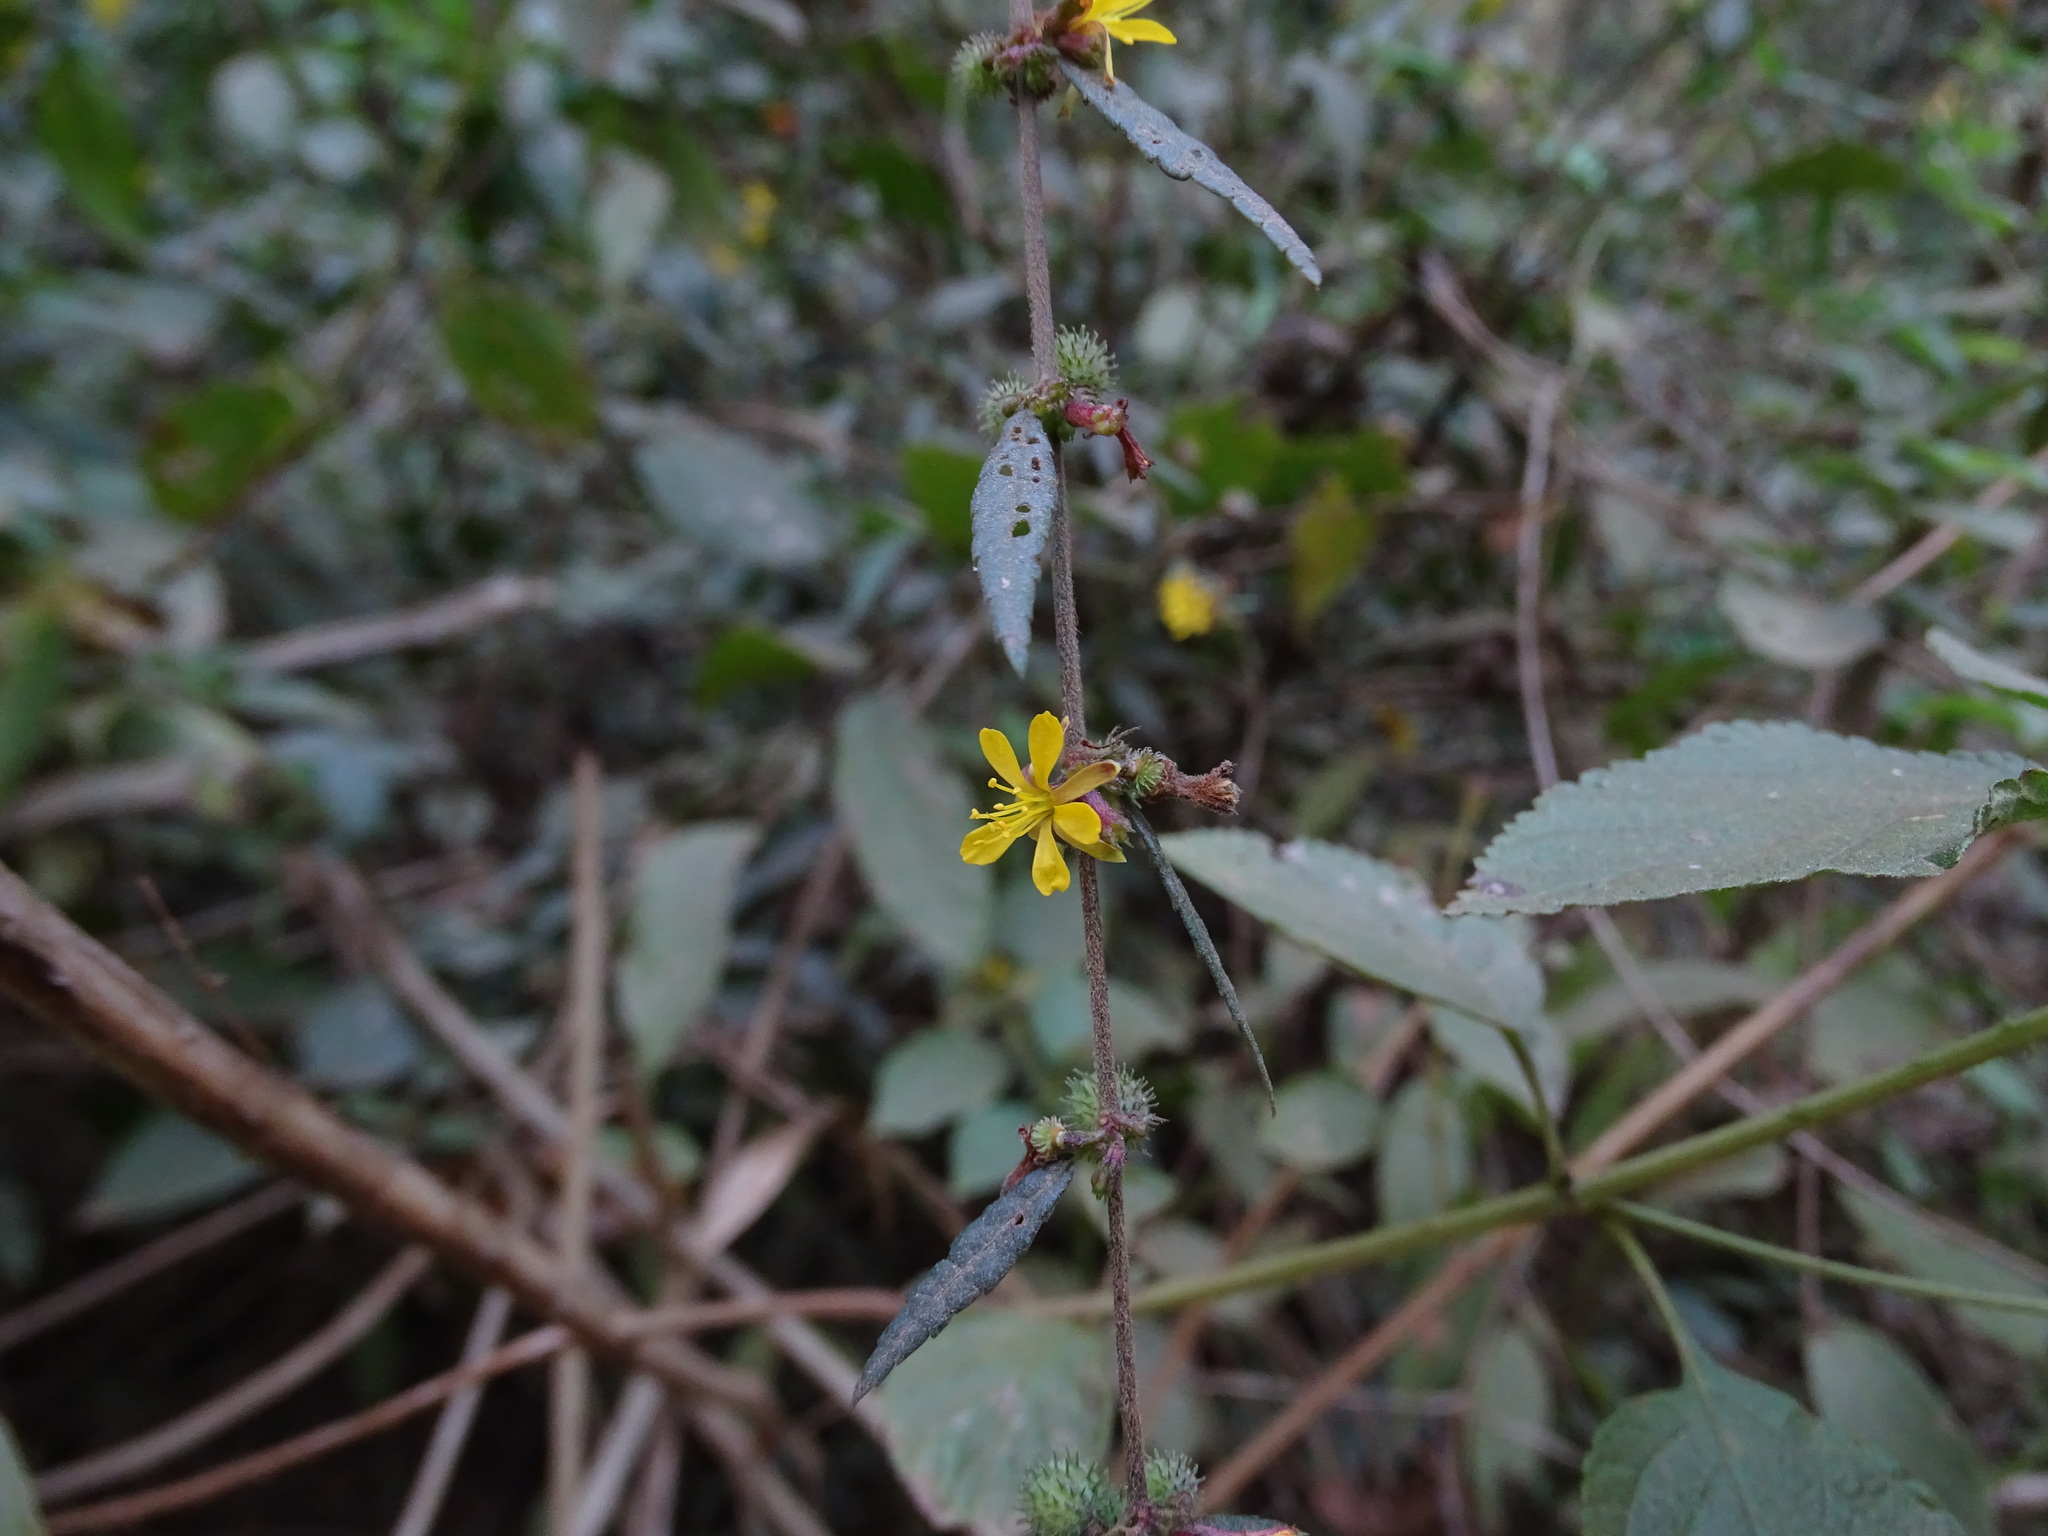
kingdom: Plantae
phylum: Tracheophyta
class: Magnoliopsida
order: Malvales
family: Malvaceae
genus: Triumfetta
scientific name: Triumfetta rhomboidea
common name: Diamond burbark
